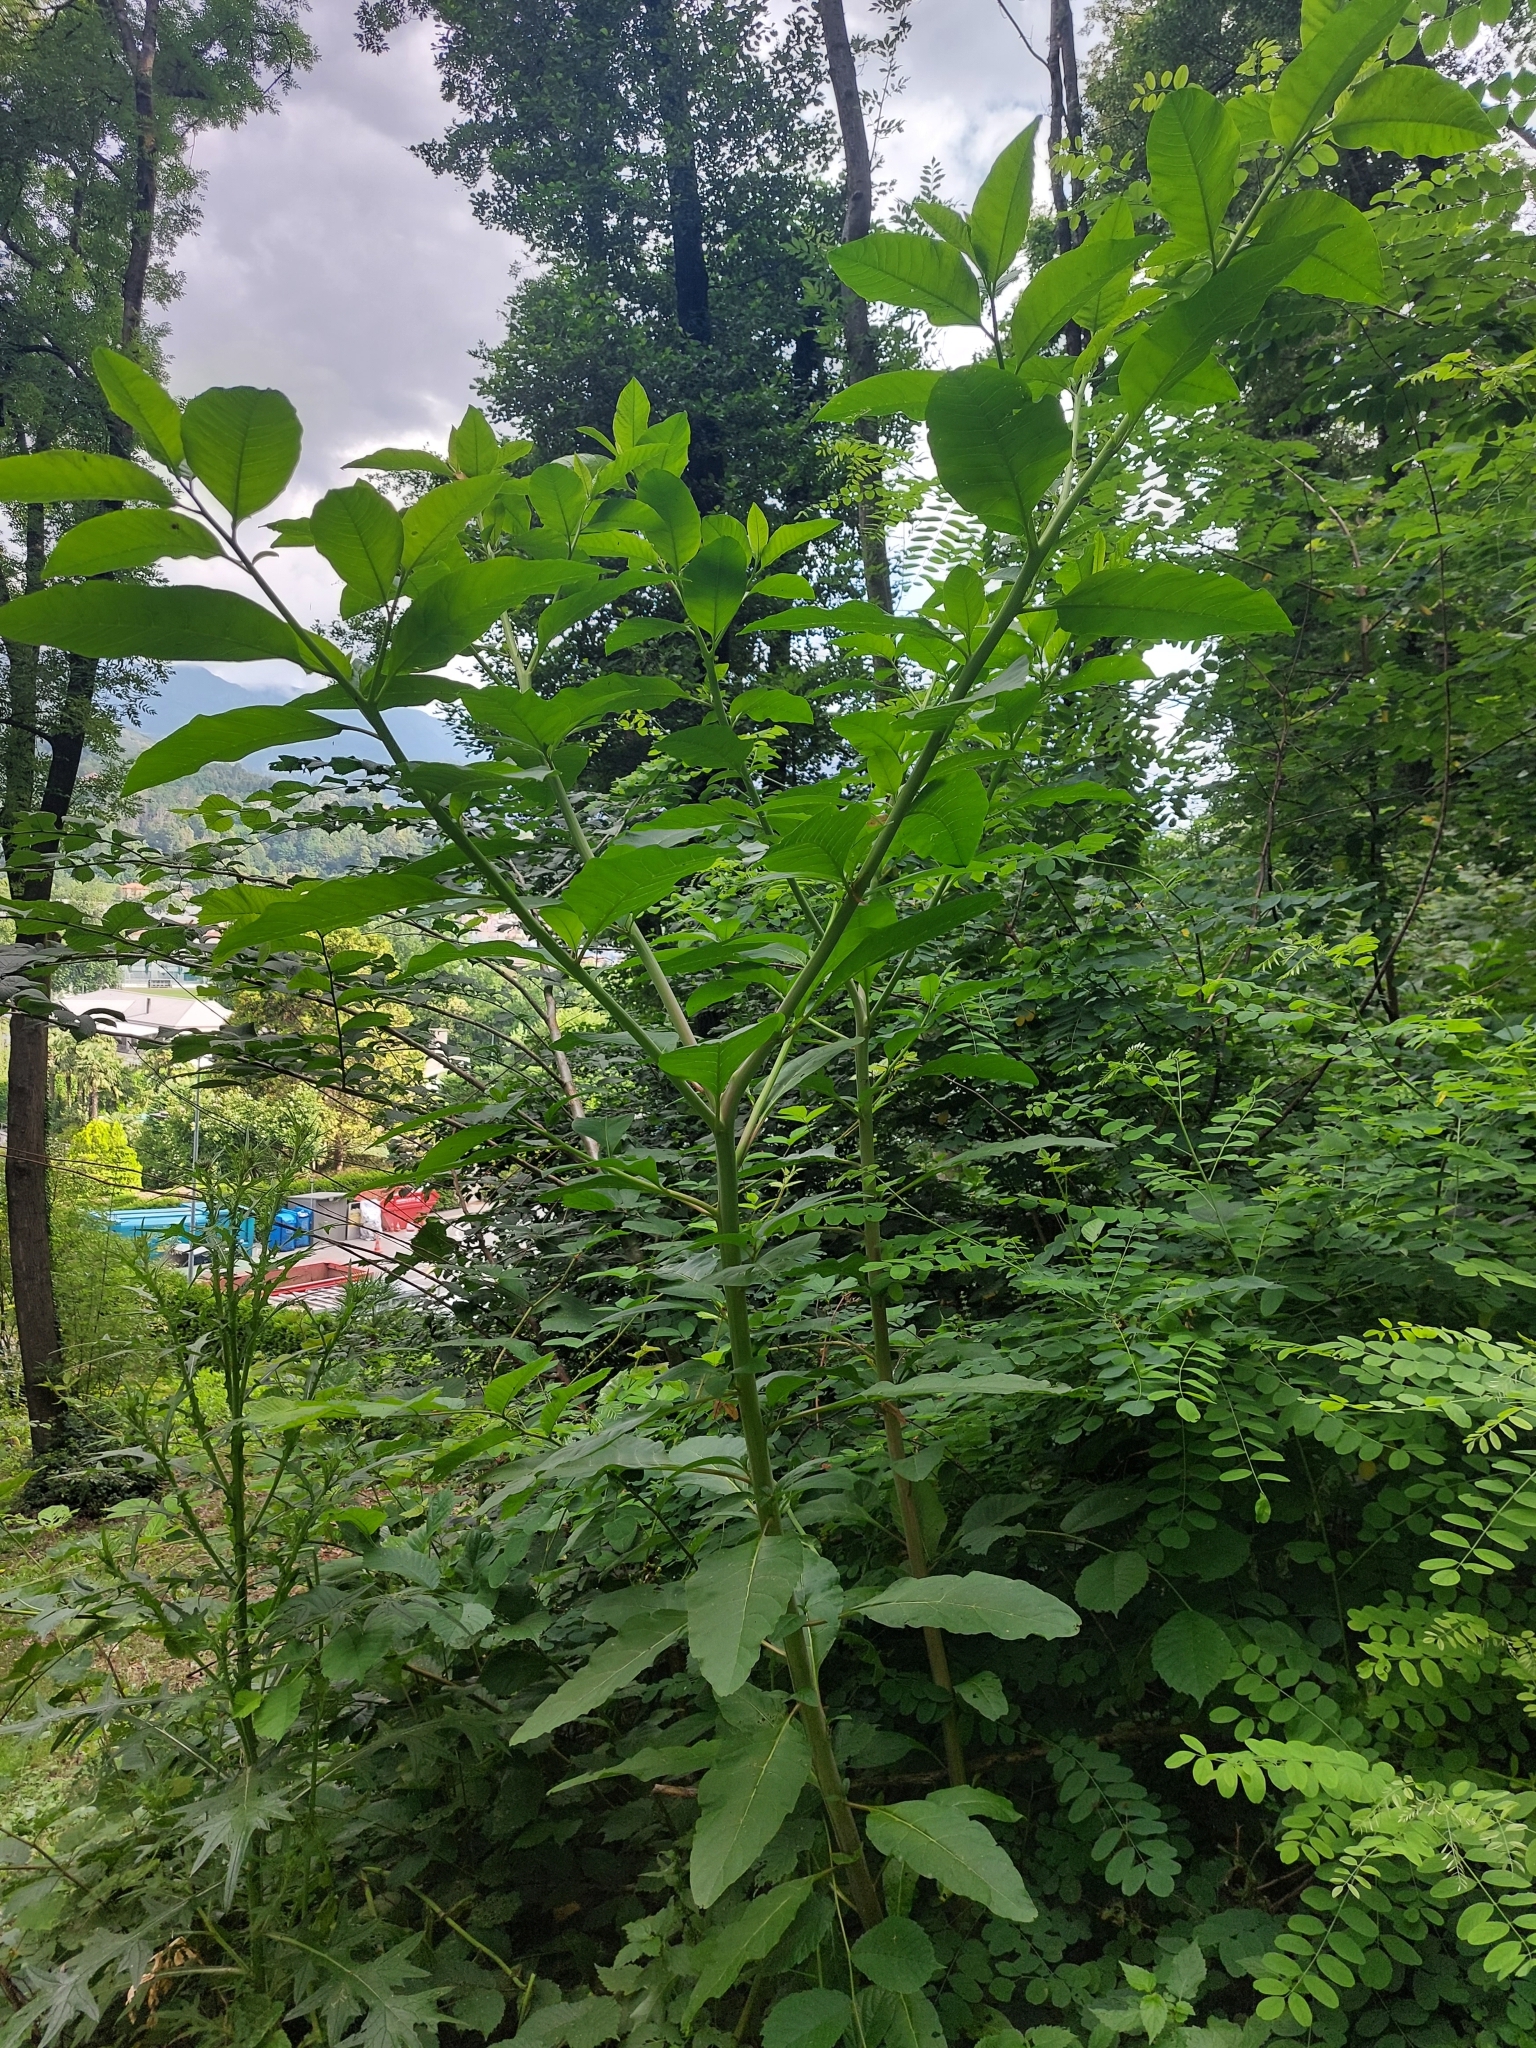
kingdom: Plantae
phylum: Tracheophyta
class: Magnoliopsida
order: Caryophyllales
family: Phytolaccaceae
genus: Phytolacca
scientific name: Phytolacca americana
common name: American pokeweed
